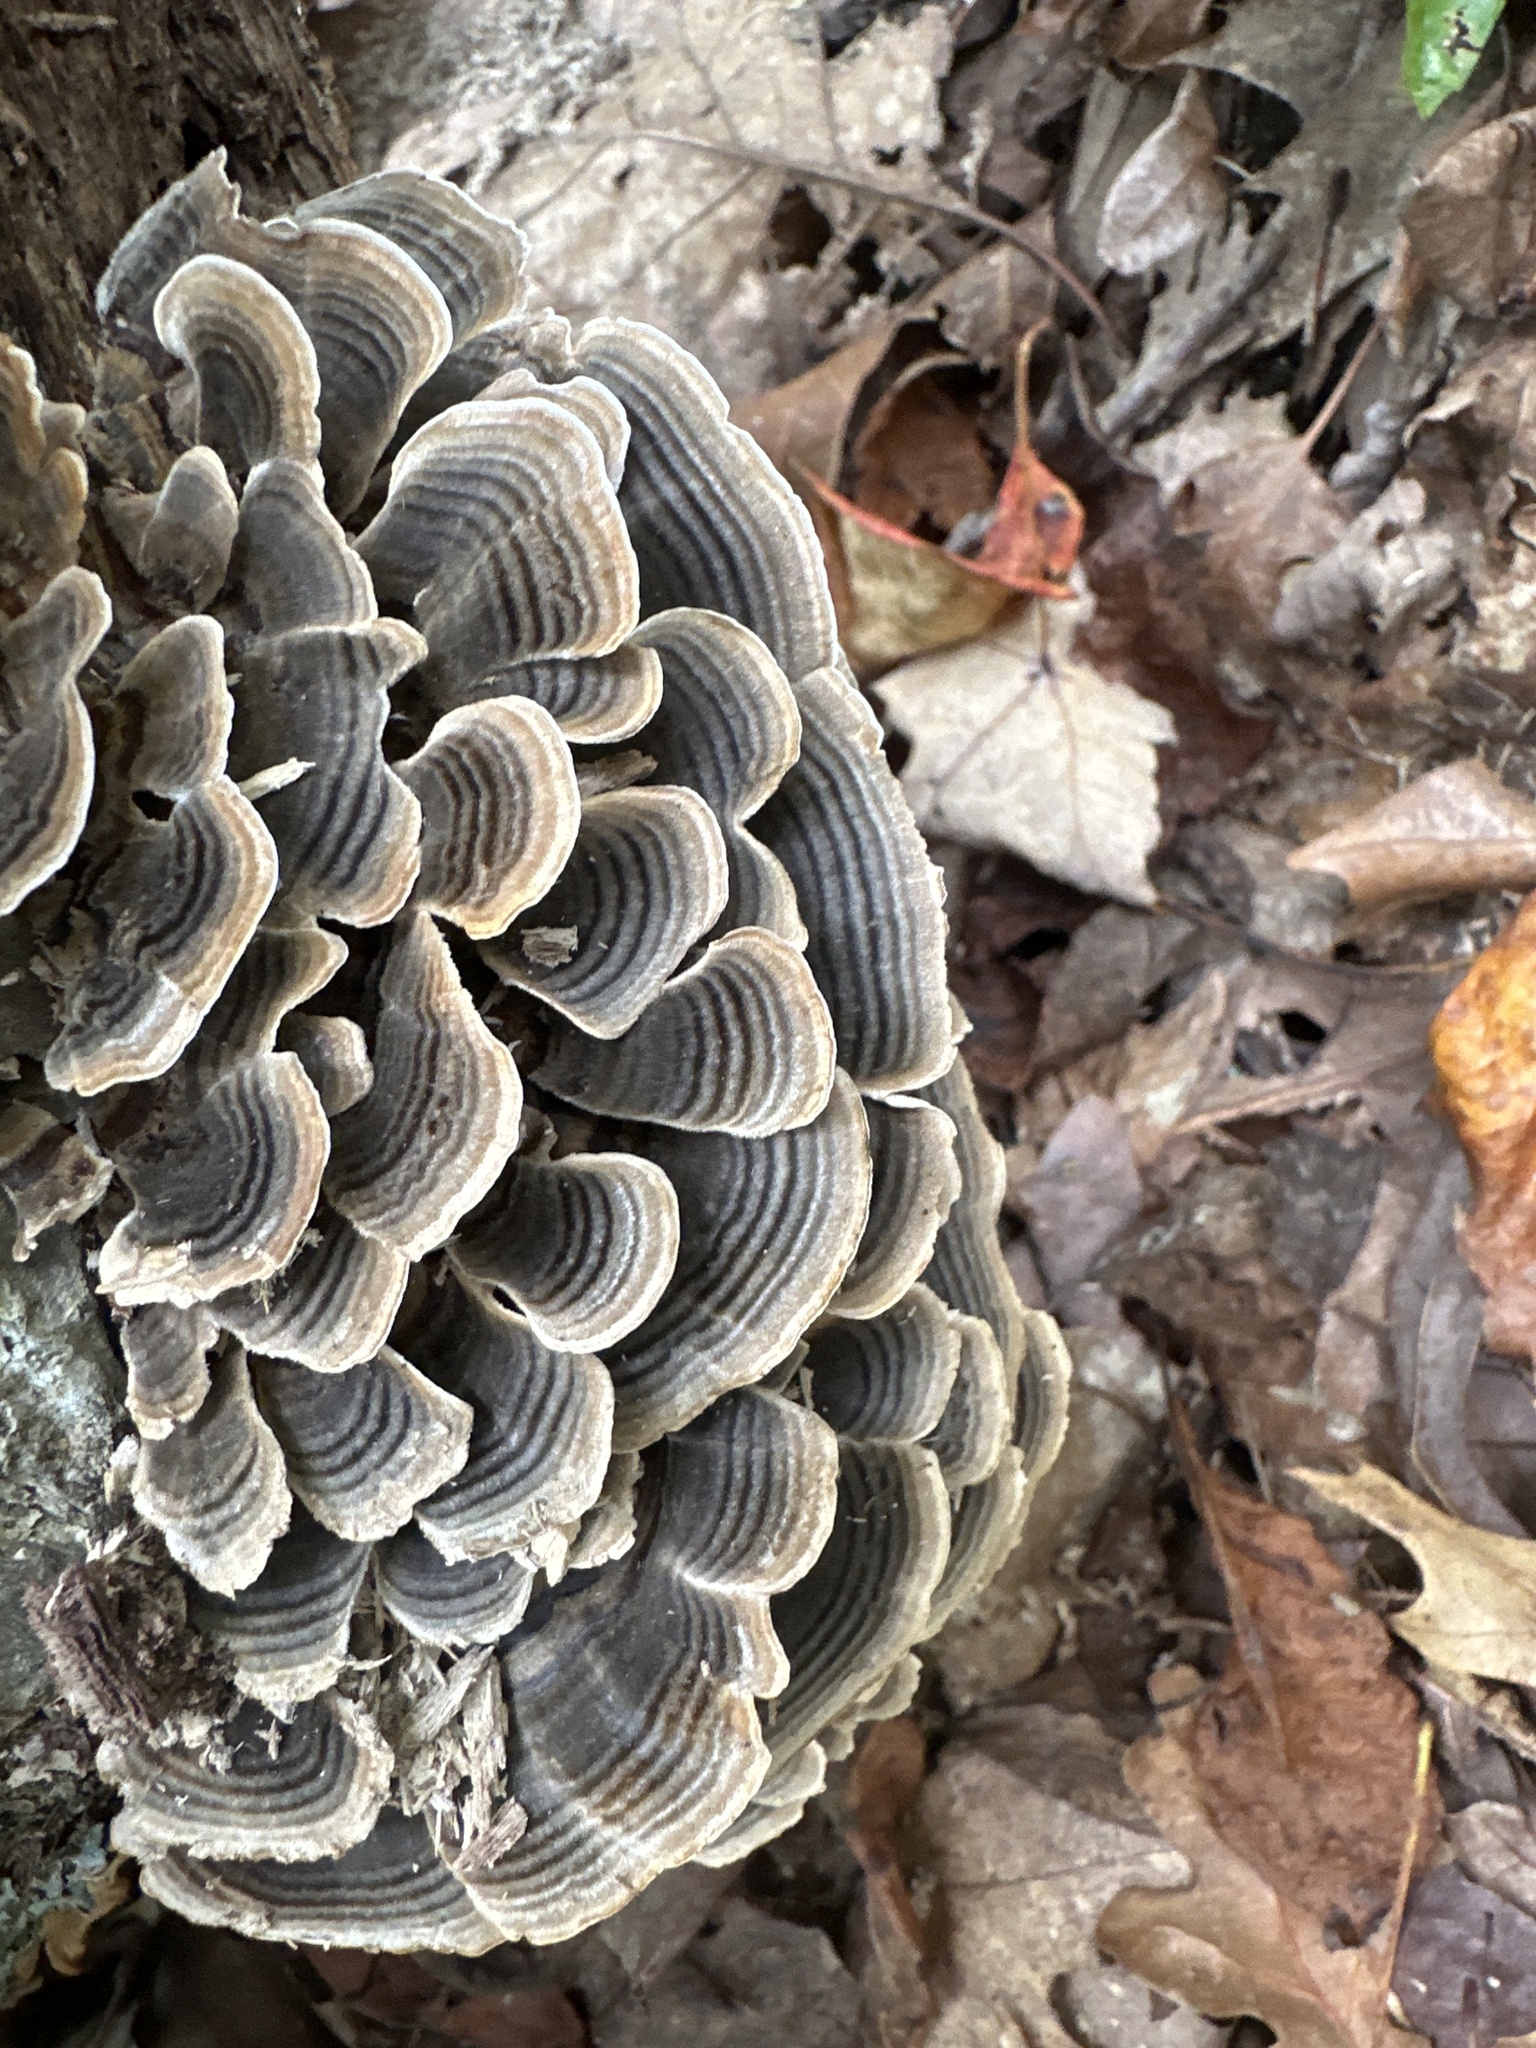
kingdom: Fungi
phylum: Basidiomycota
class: Agaricomycetes
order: Polyporales
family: Polyporaceae
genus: Trametes
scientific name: Trametes versicolor
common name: Turkeytail
